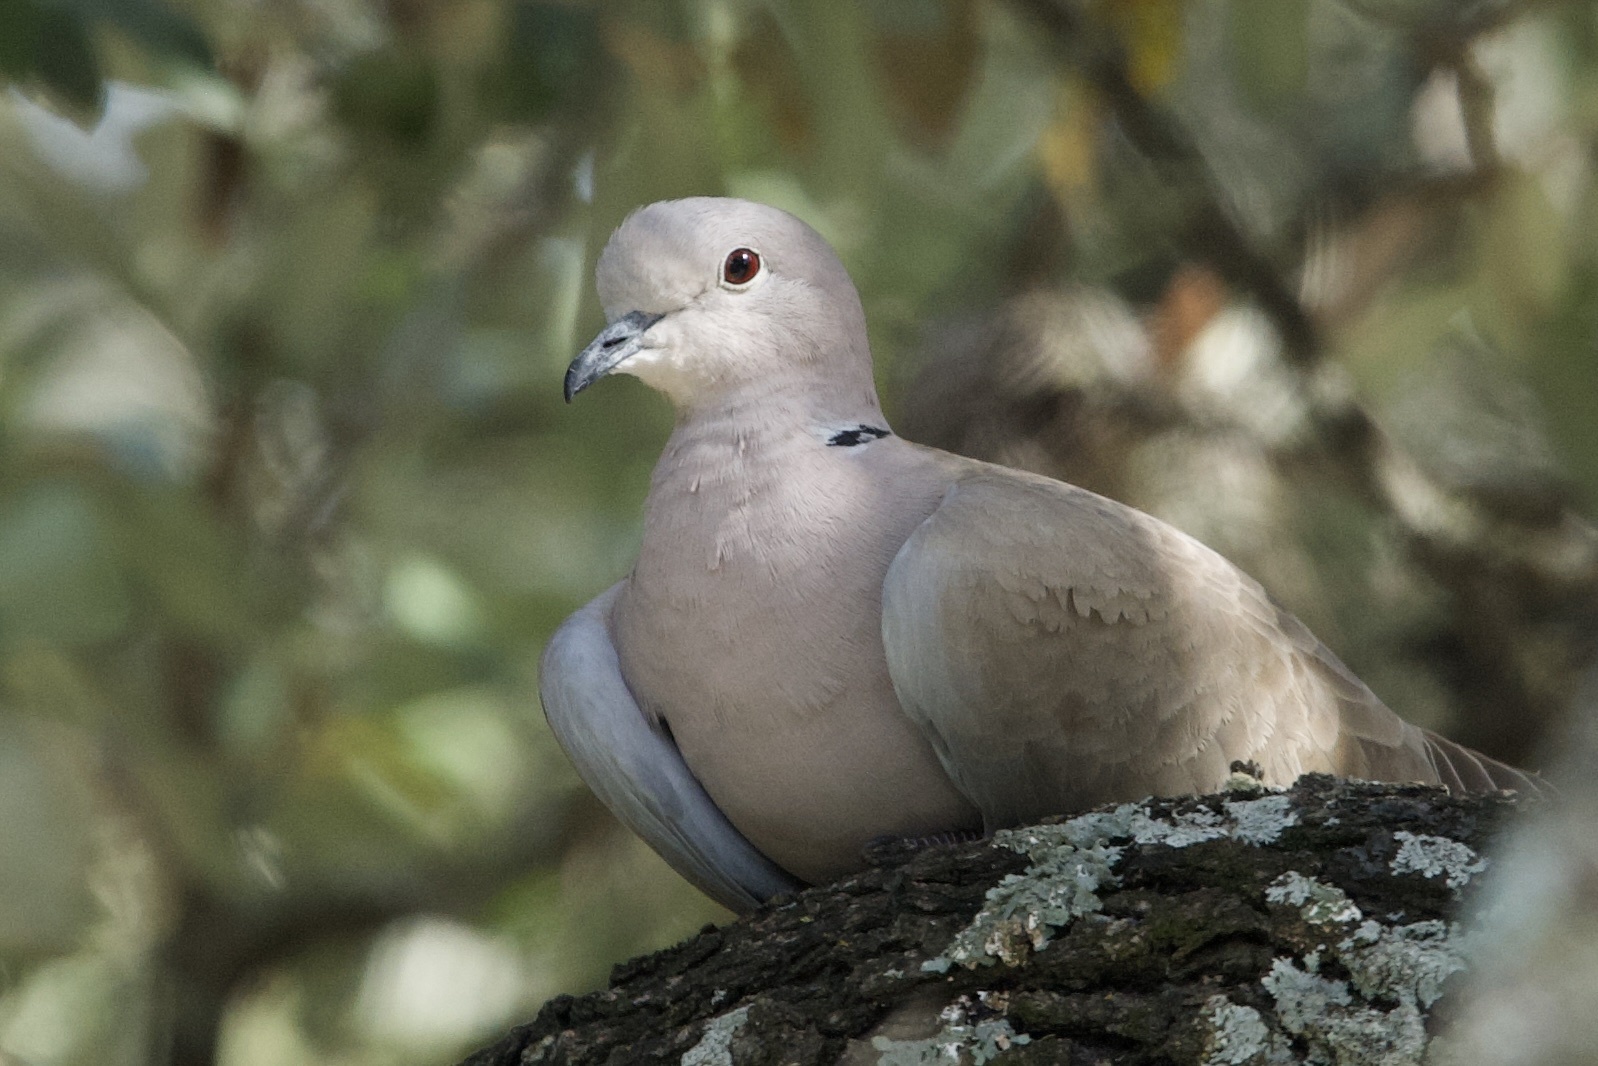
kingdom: Animalia
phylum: Chordata
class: Aves
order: Columbiformes
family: Columbidae
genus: Streptopelia
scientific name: Streptopelia decaocto
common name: Eurasian collared dove
